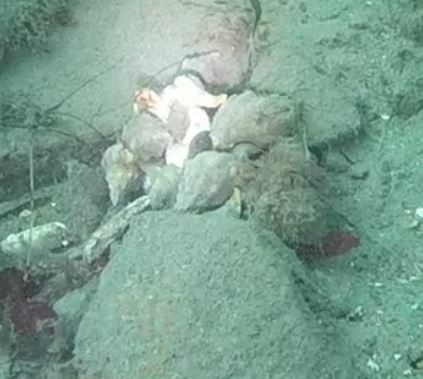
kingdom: Animalia
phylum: Mollusca
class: Gastropoda
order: Neogastropoda
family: Austrosiphonidae
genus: Kelletia
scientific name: Kelletia kelletii
